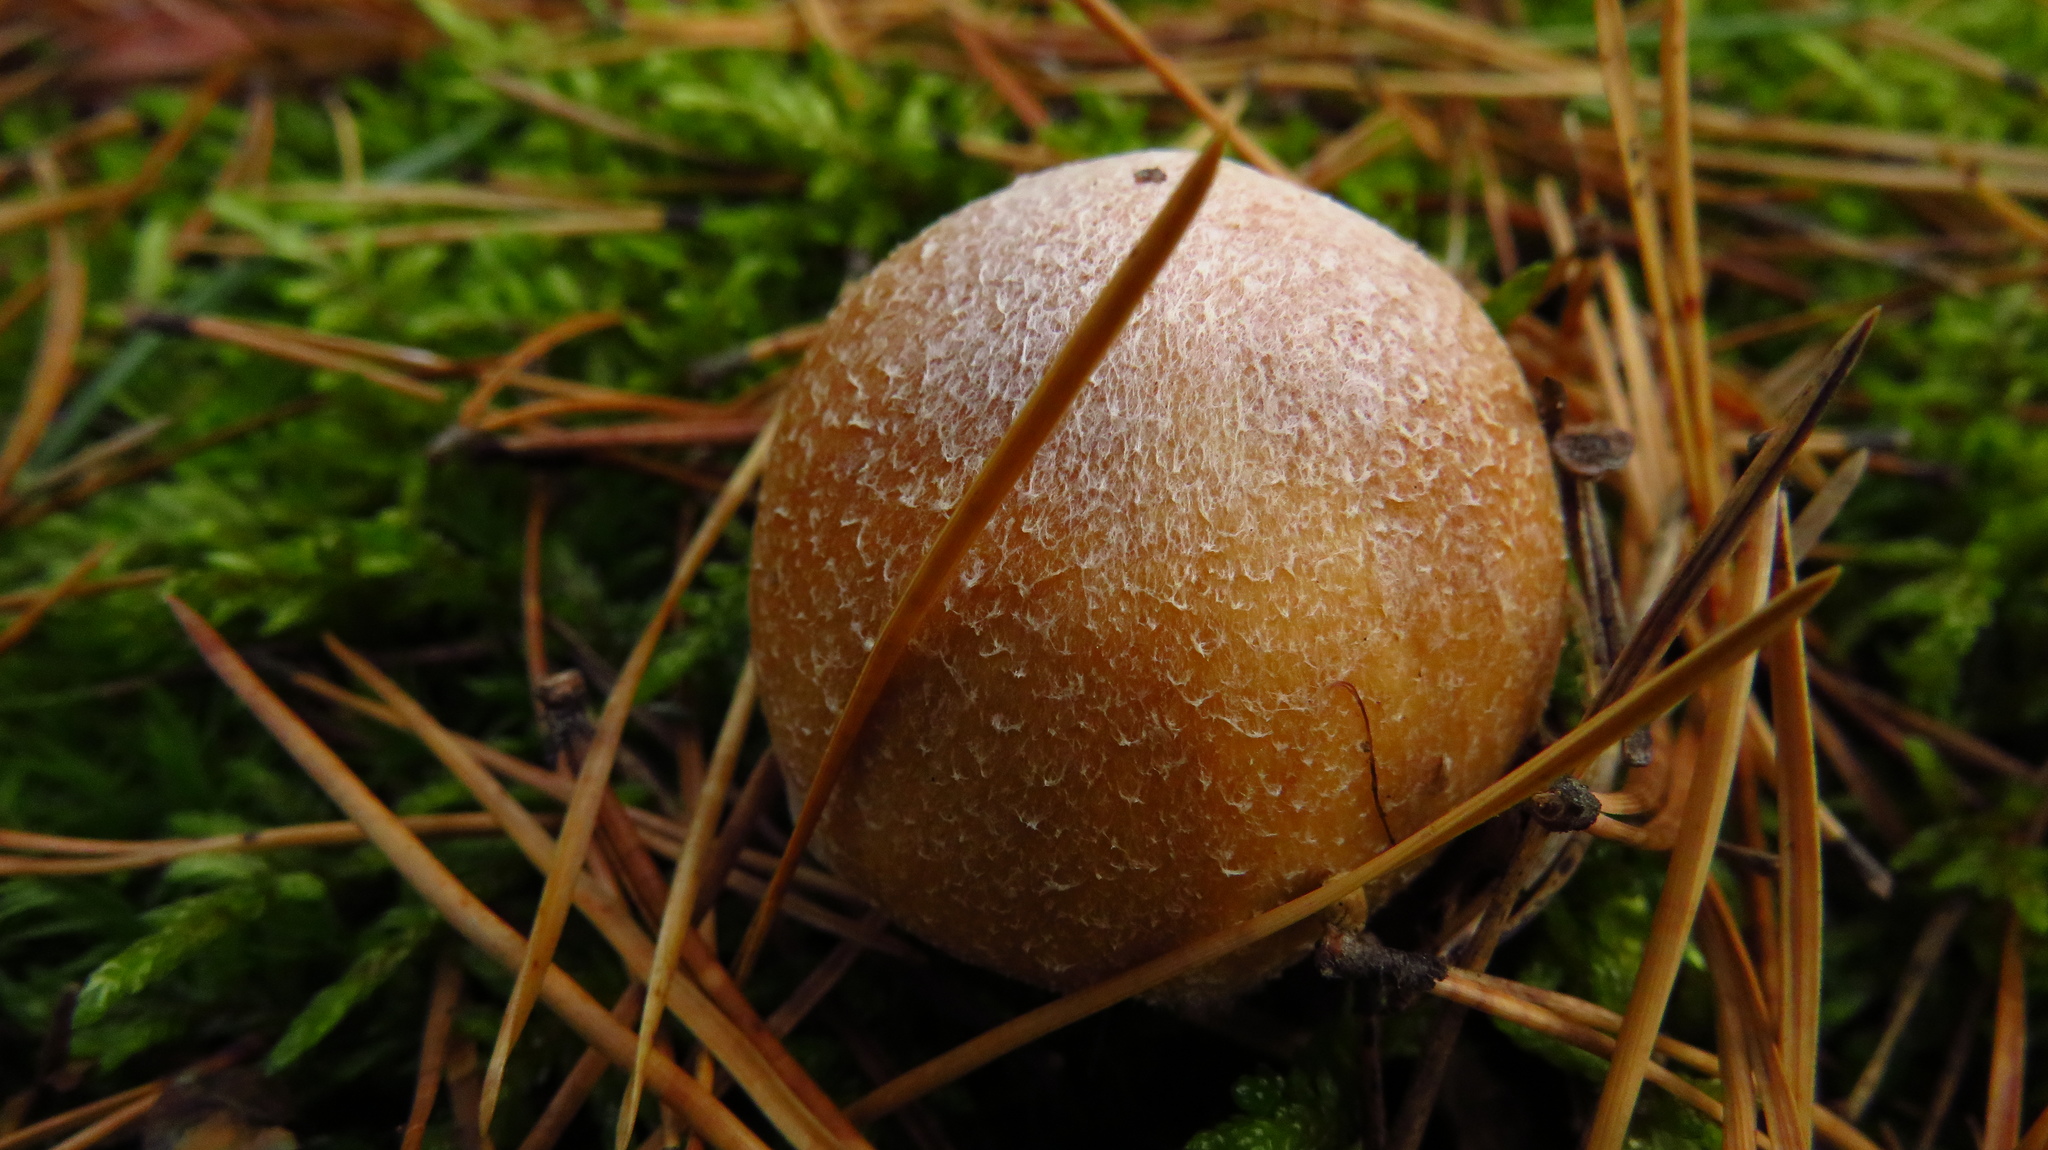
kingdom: Fungi
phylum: Basidiomycota
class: Agaricomycetes
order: Agaricales
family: Cortinariaceae
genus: Cortinarius
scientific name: Cortinarius caperatus
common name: The gypsy
